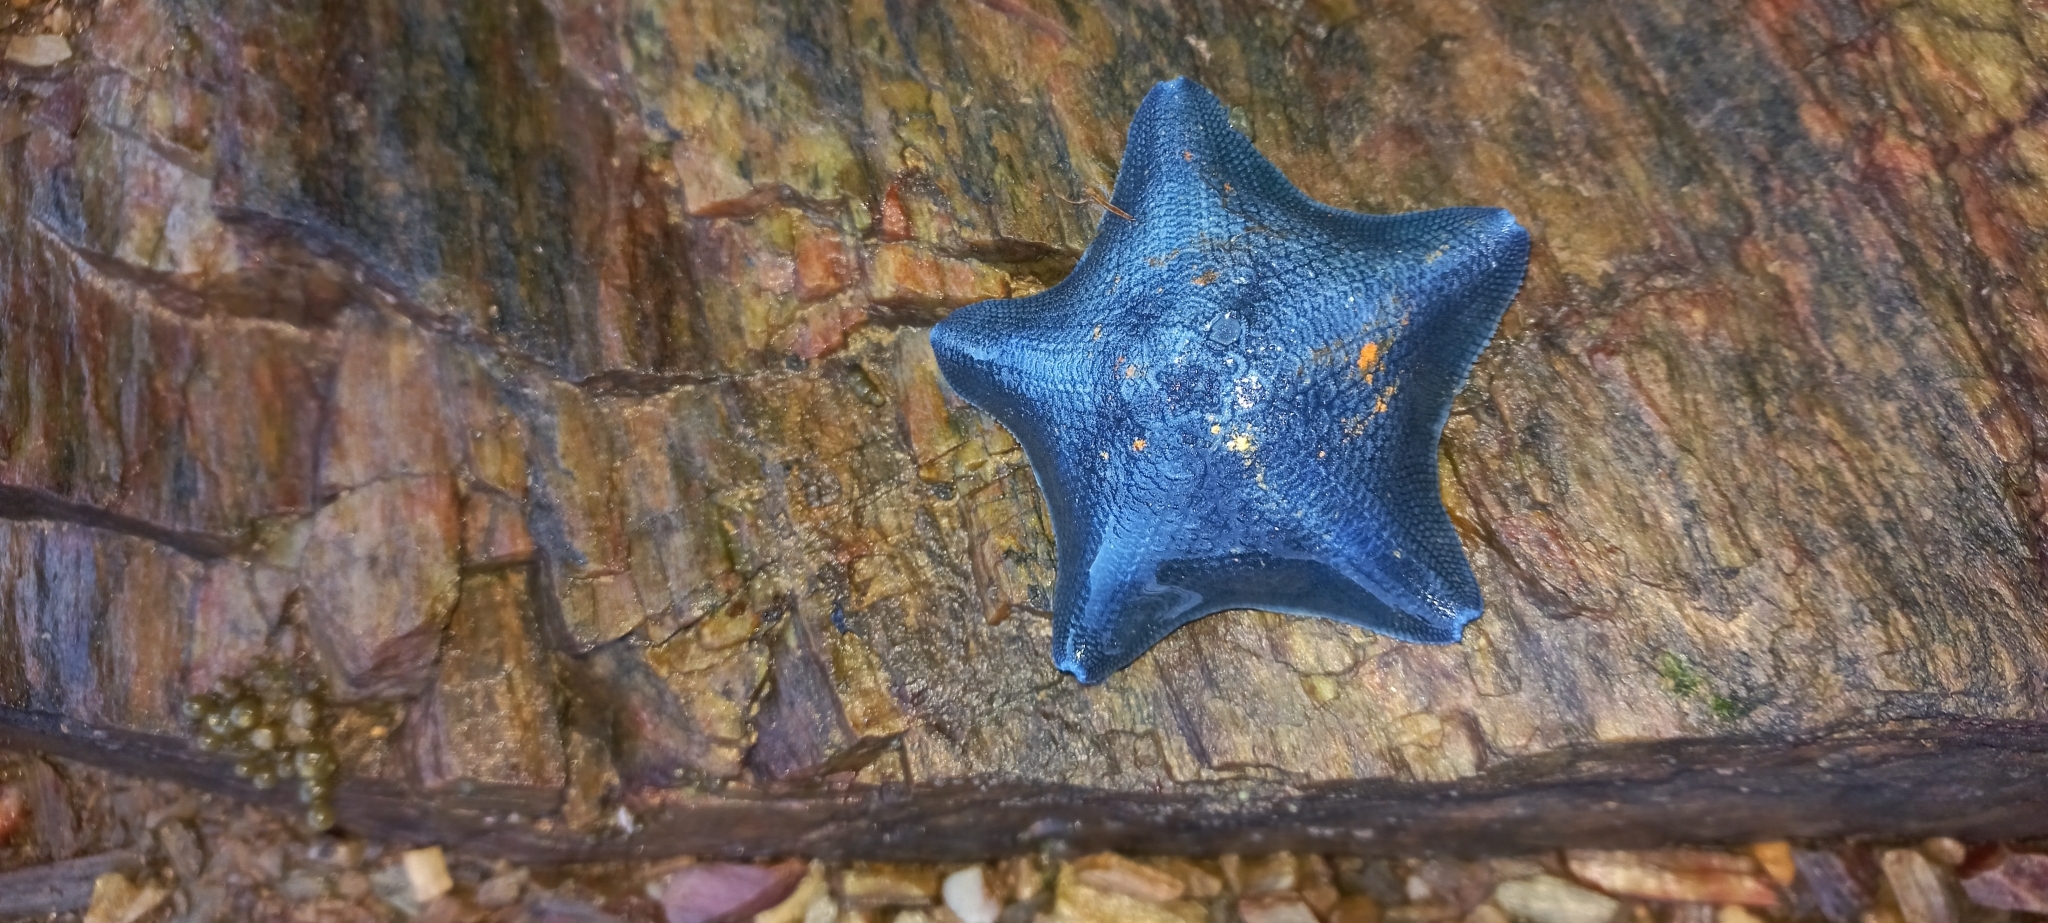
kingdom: Animalia
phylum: Echinodermata
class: Asteroidea
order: Valvatida
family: Asterinidae
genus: Patiriella
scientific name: Patiriella regularis
